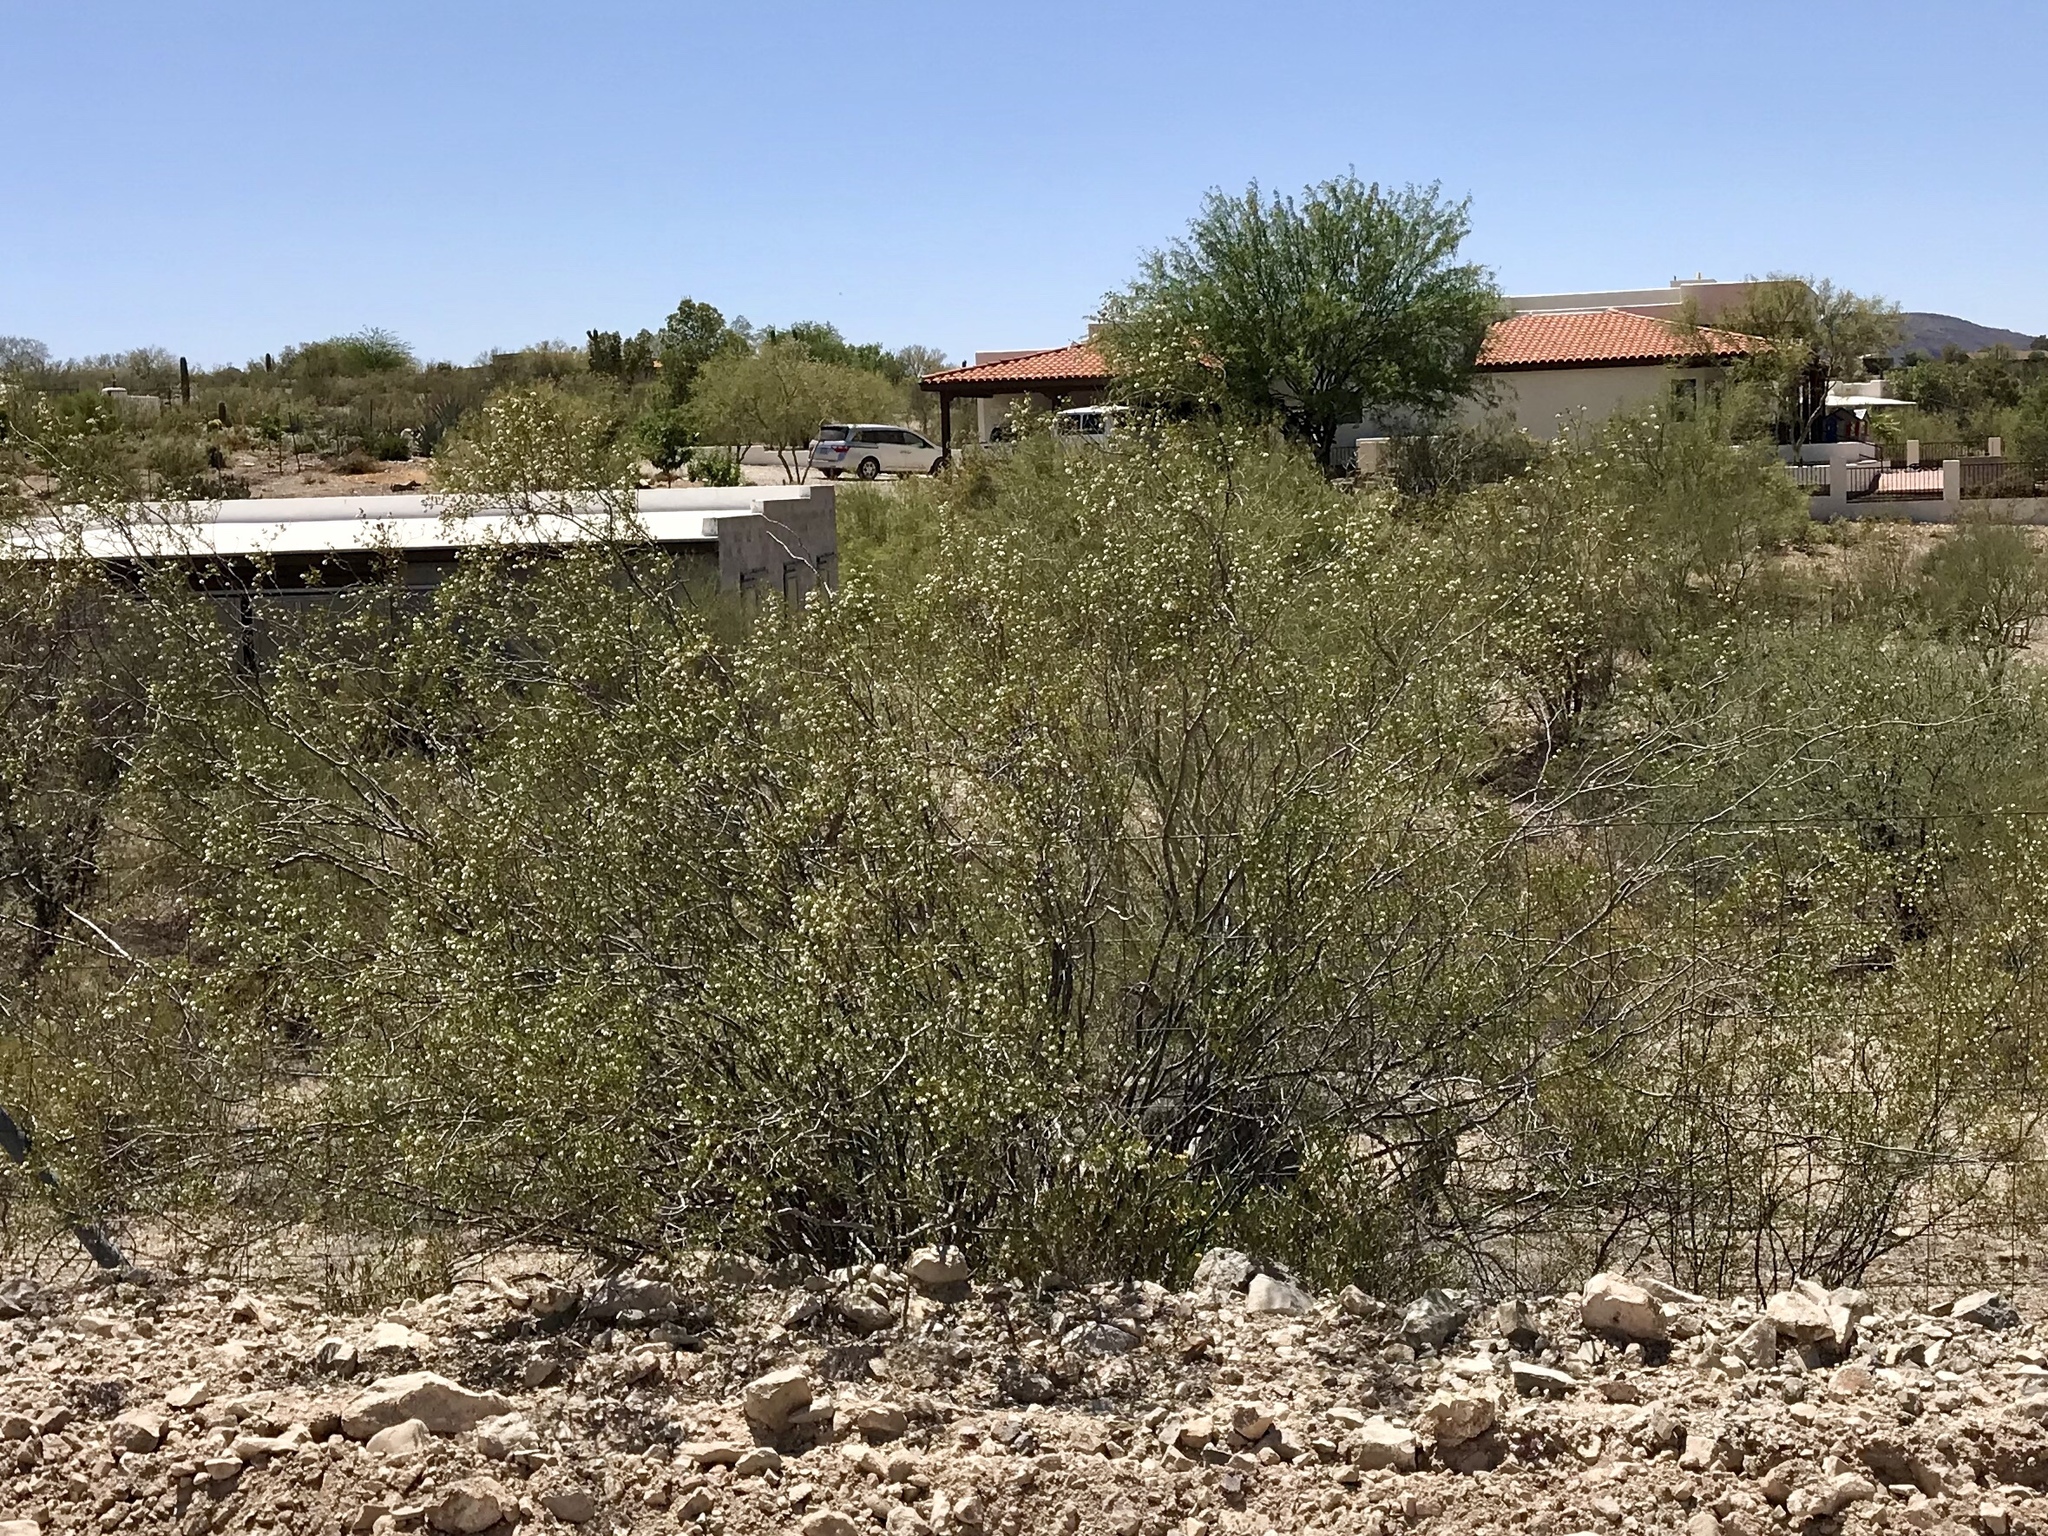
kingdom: Plantae
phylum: Tracheophyta
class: Magnoliopsida
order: Zygophyllales
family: Zygophyllaceae
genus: Larrea
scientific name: Larrea tridentata
